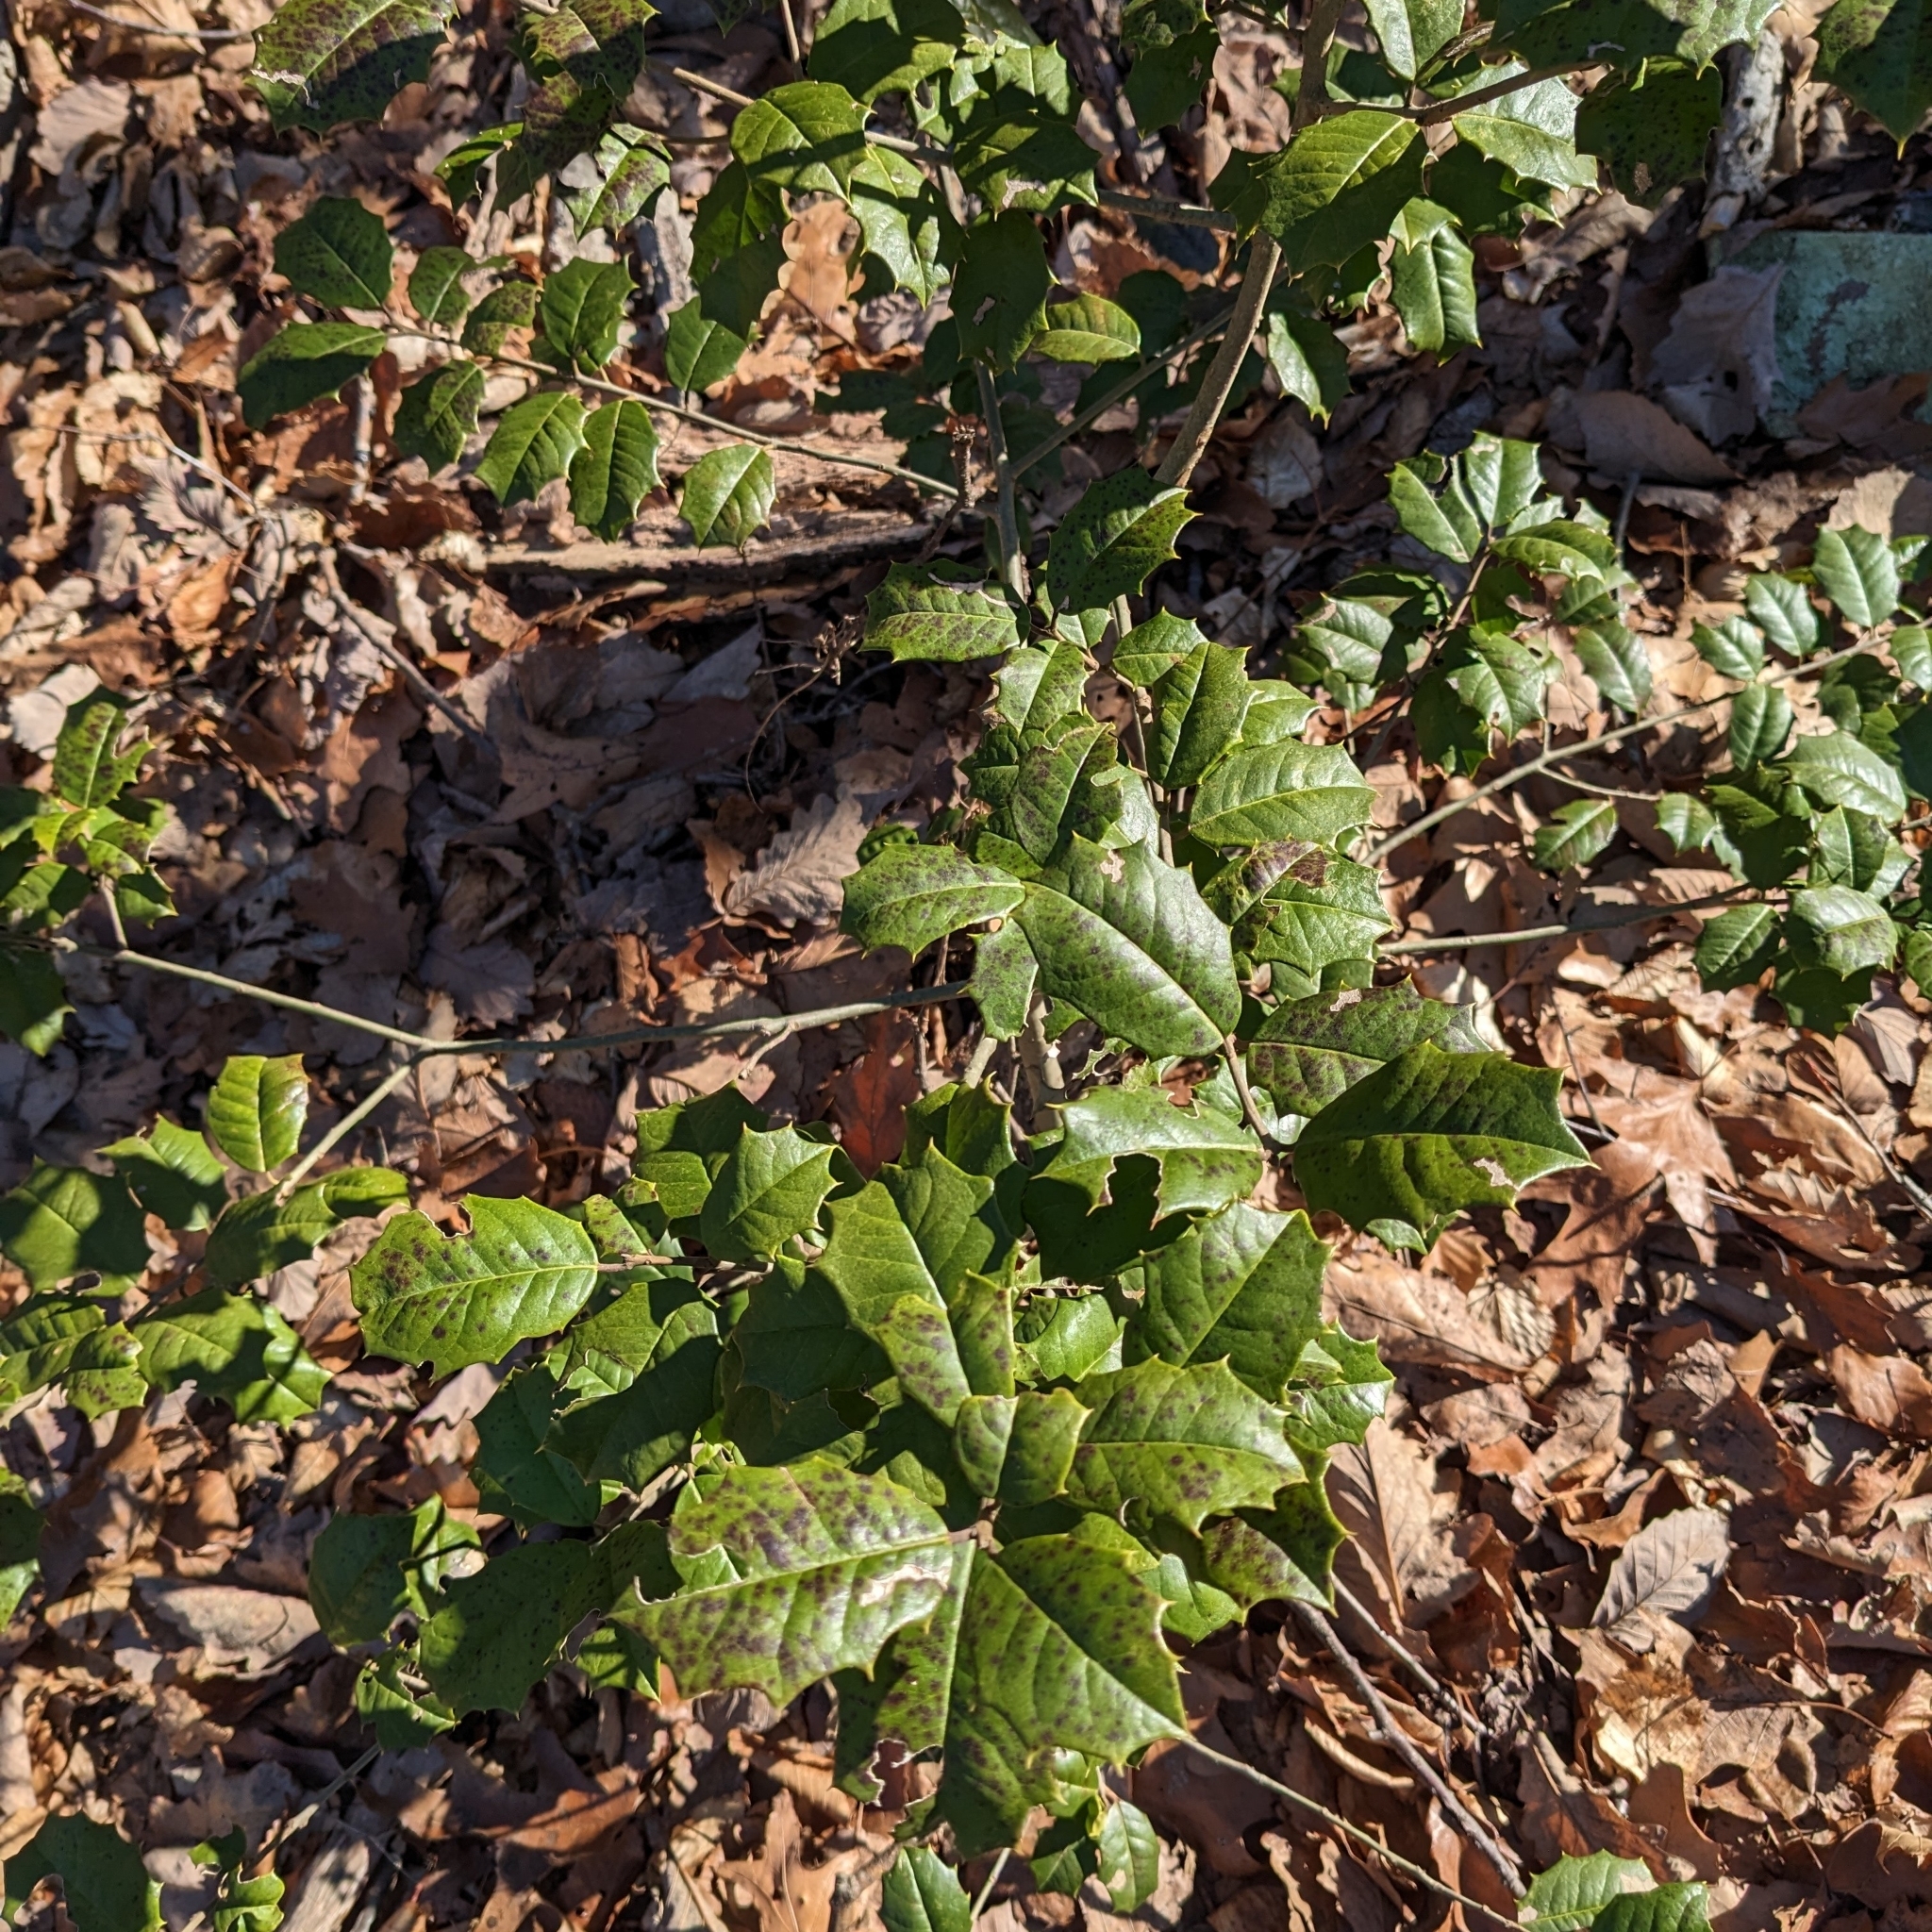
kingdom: Plantae
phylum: Tracheophyta
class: Magnoliopsida
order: Aquifoliales
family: Aquifoliaceae
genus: Ilex
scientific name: Ilex opaca
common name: American holly
